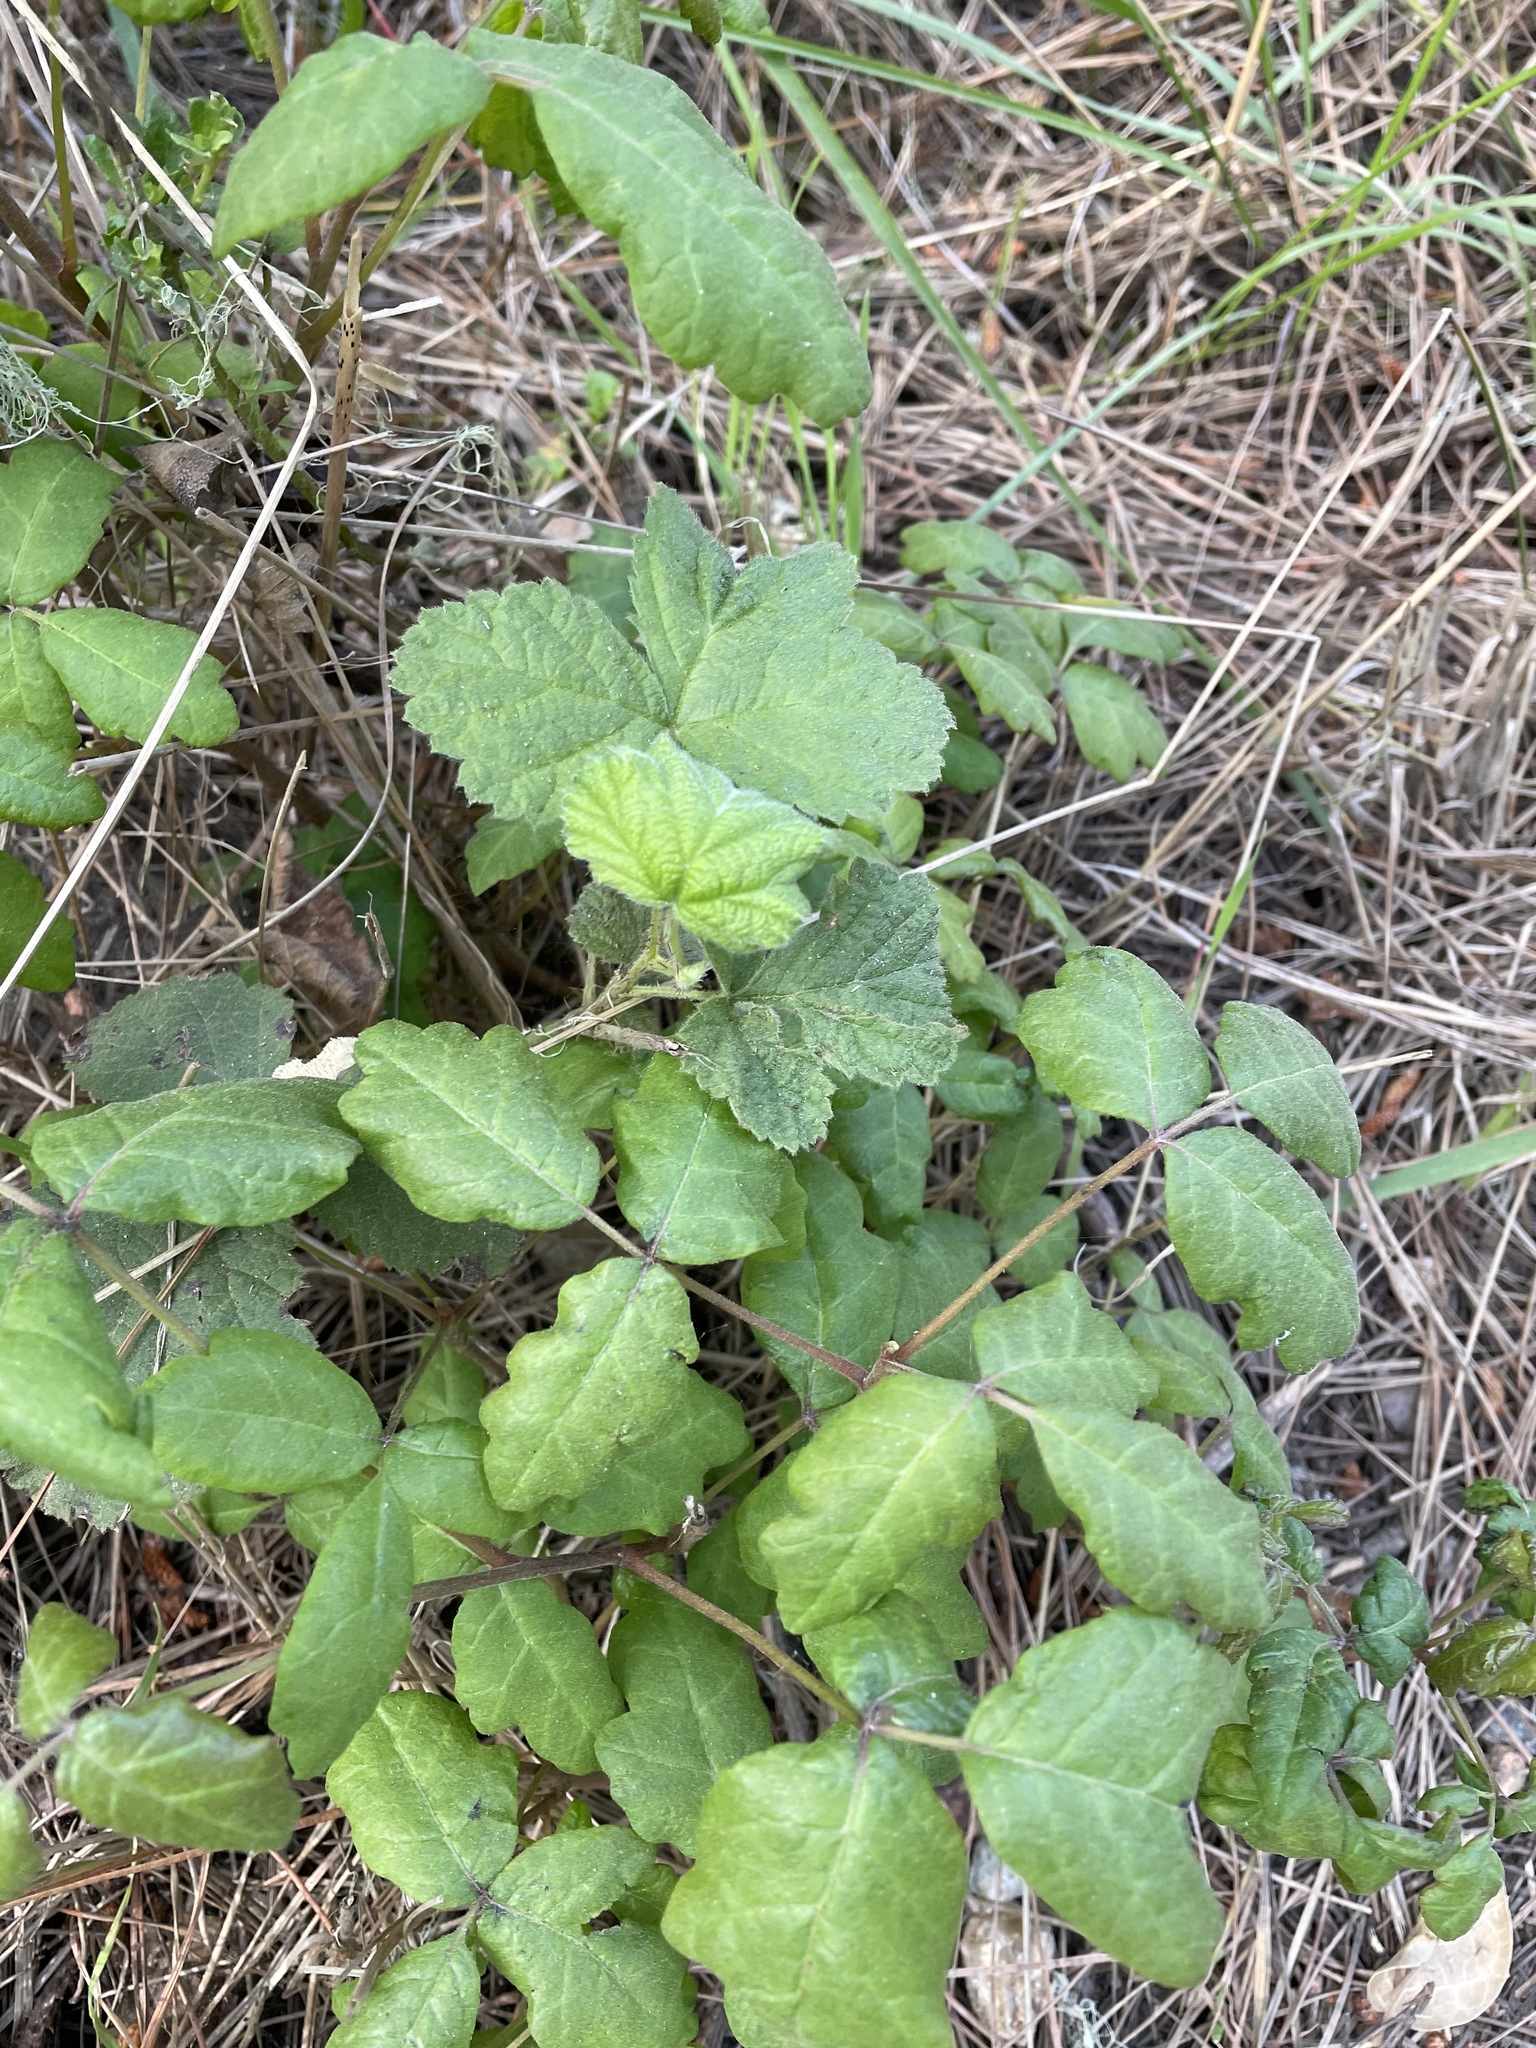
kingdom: Plantae
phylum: Tracheophyta
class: Magnoliopsida
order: Sapindales
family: Anacardiaceae
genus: Toxicodendron
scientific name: Toxicodendron diversilobum
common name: Pacific poison-oak
